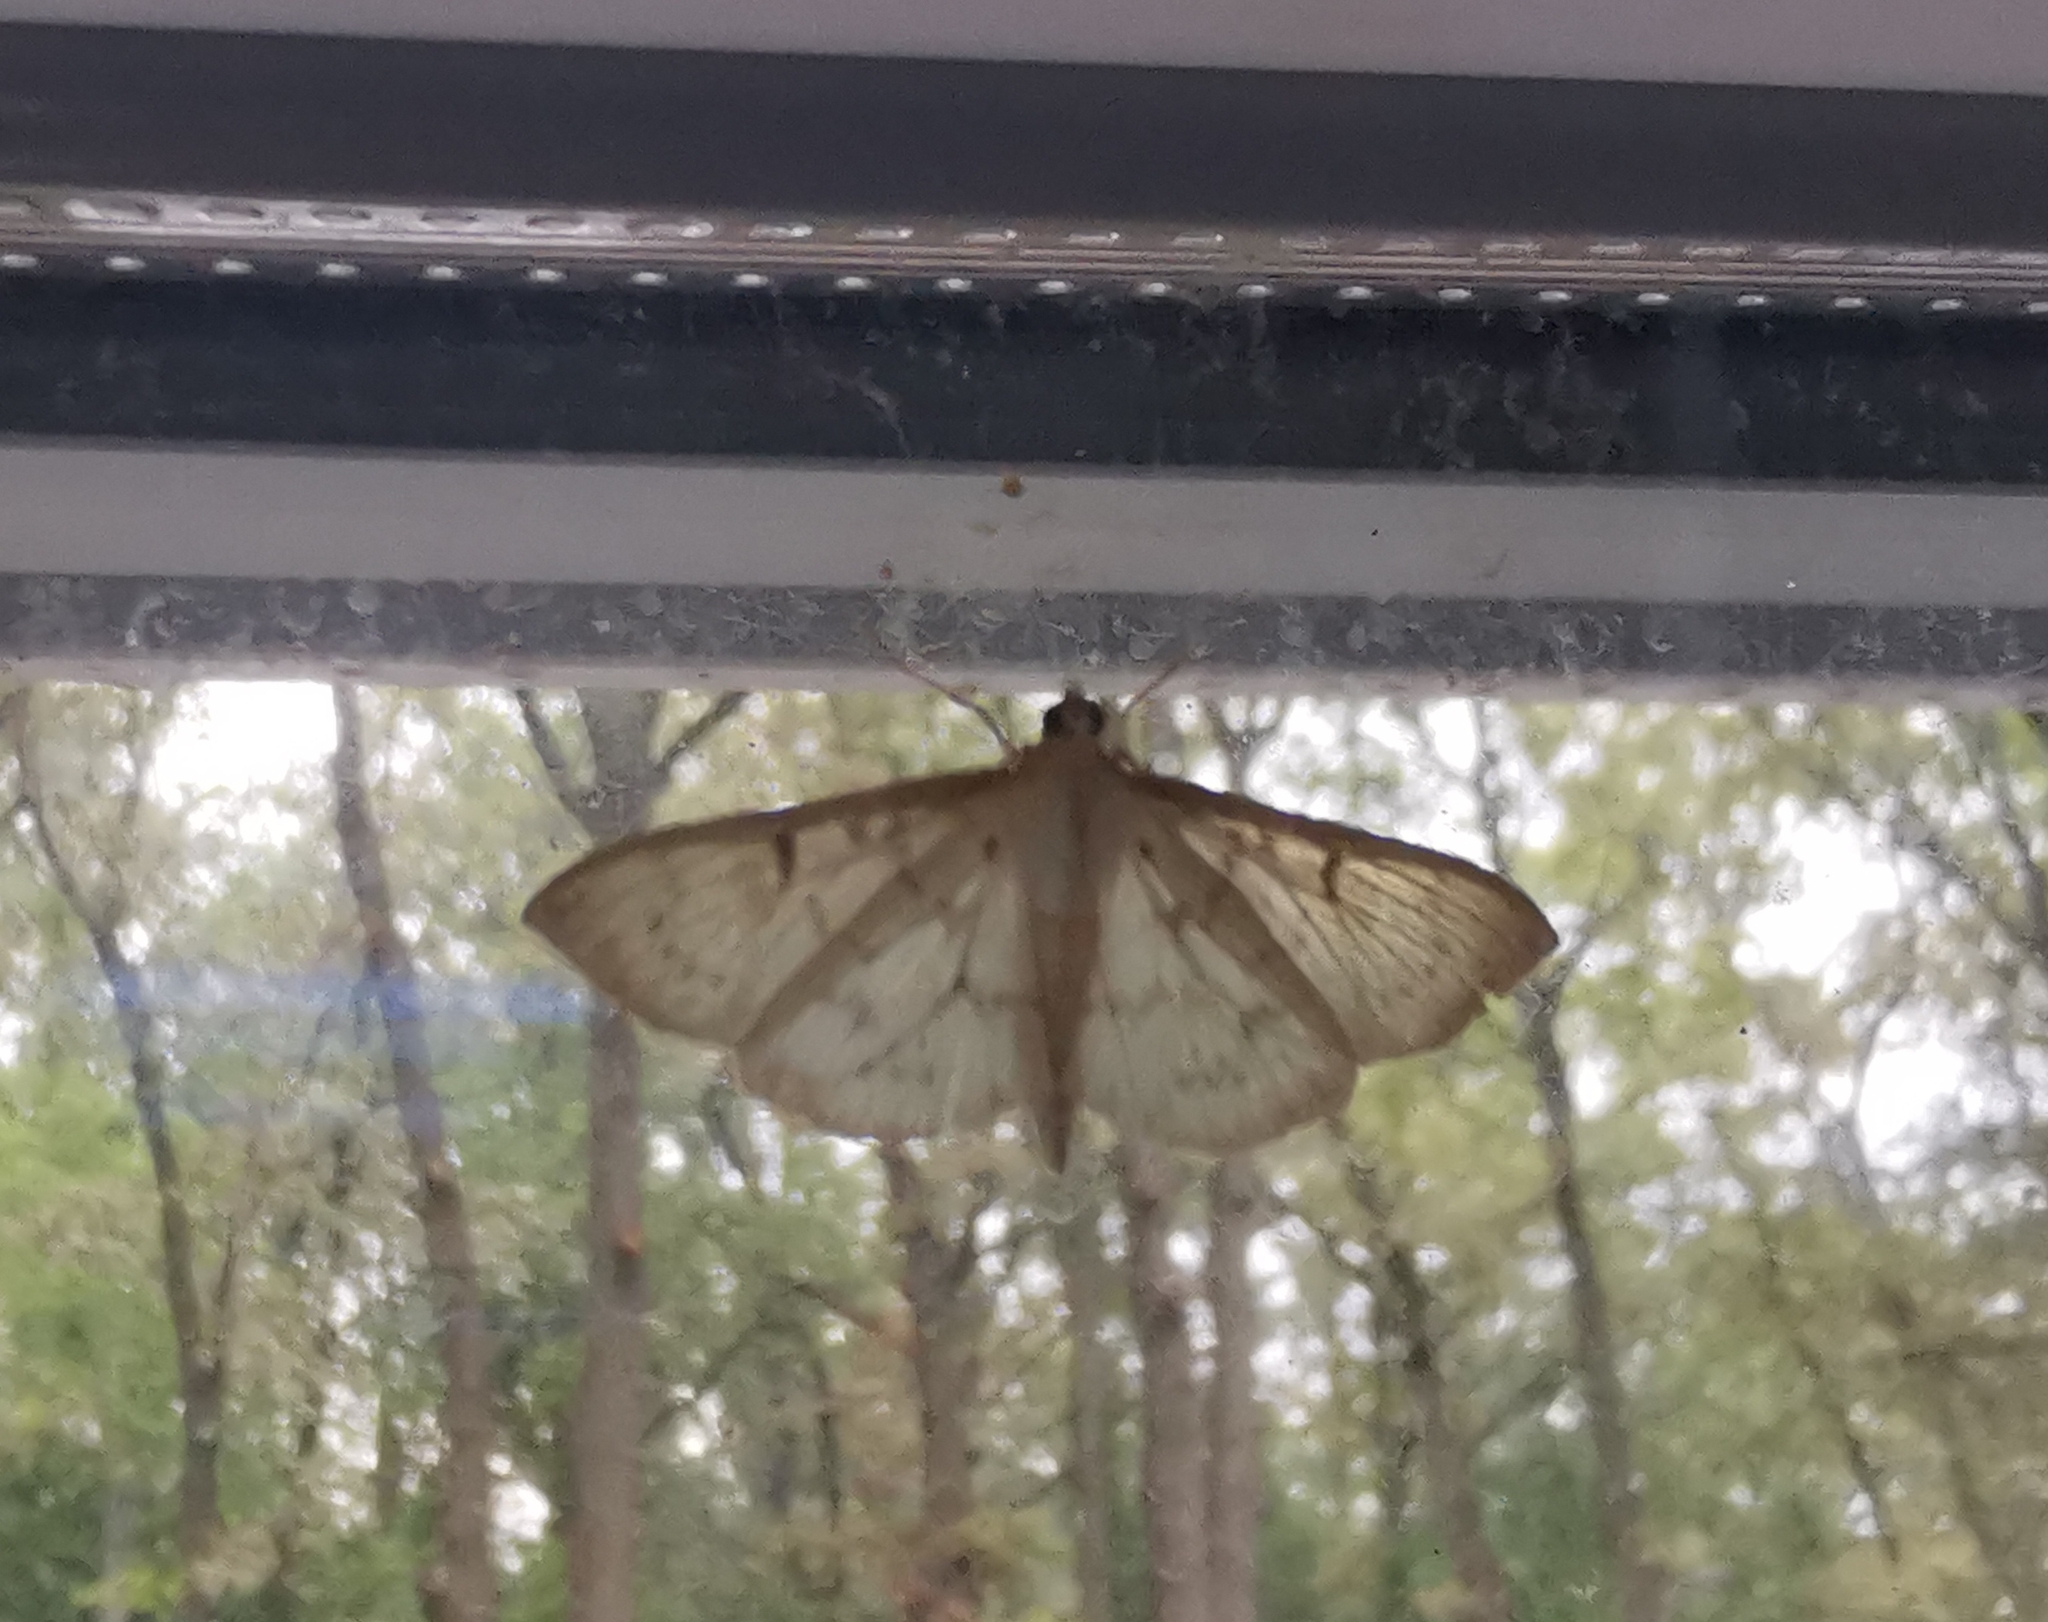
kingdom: Animalia
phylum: Arthropoda
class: Insecta
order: Lepidoptera
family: Crambidae
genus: Patania
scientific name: Patania ruralis
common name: Mother of pearl
